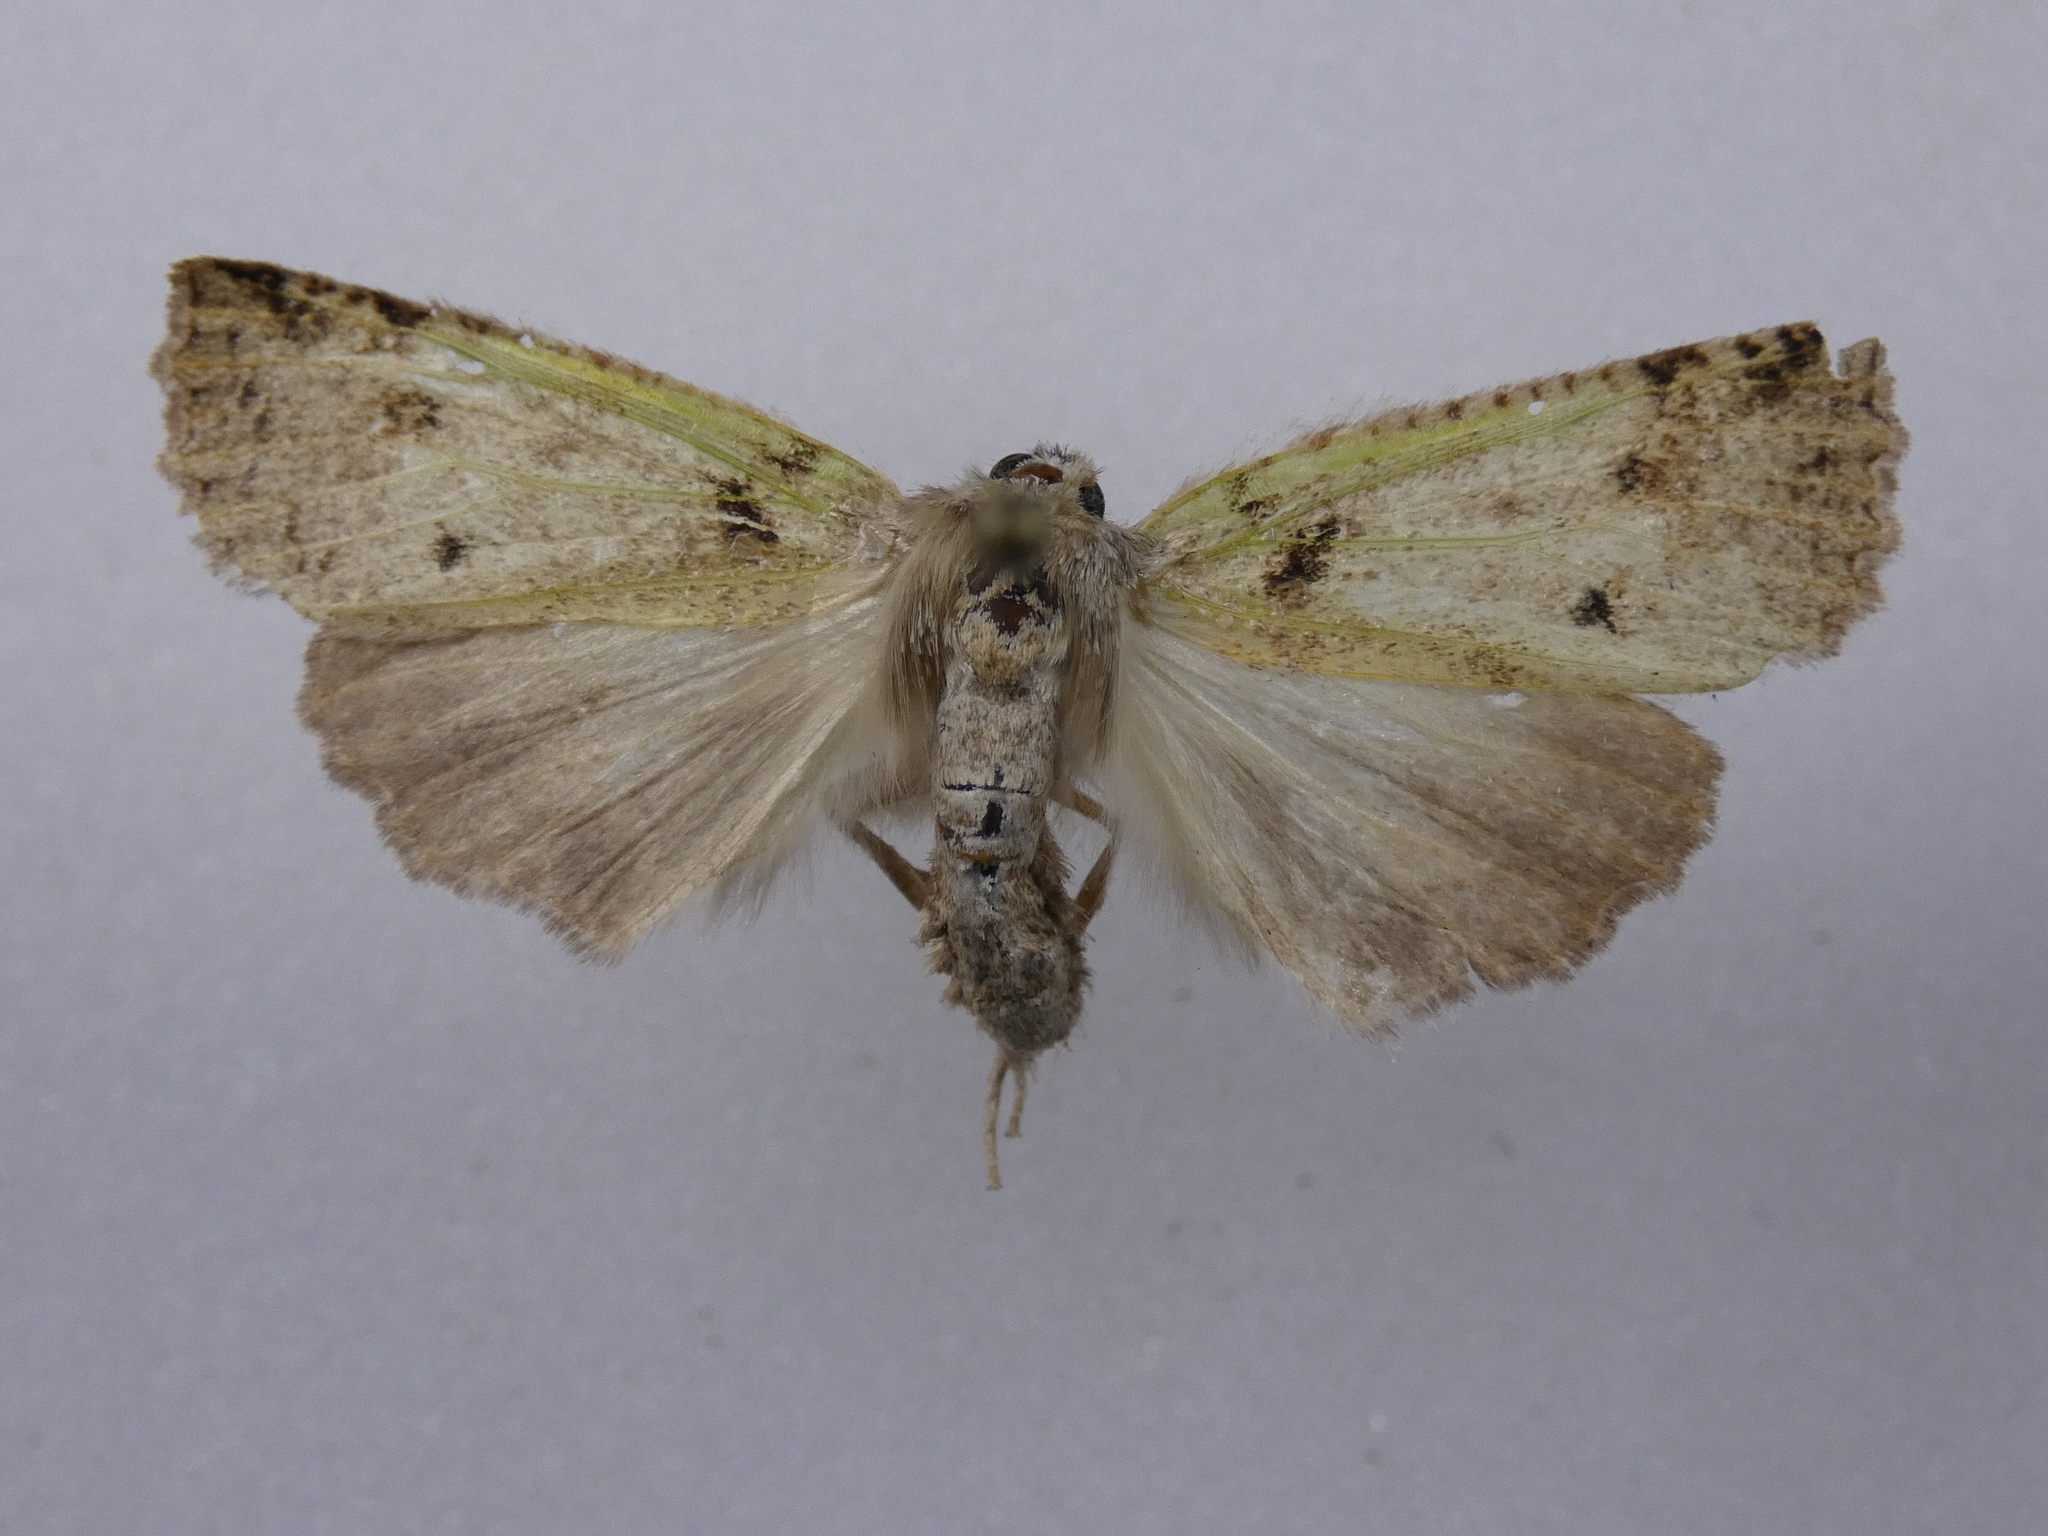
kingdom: Animalia
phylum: Arthropoda
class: Insecta
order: Lepidoptera
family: Geometridae
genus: Declana
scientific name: Declana floccosa
